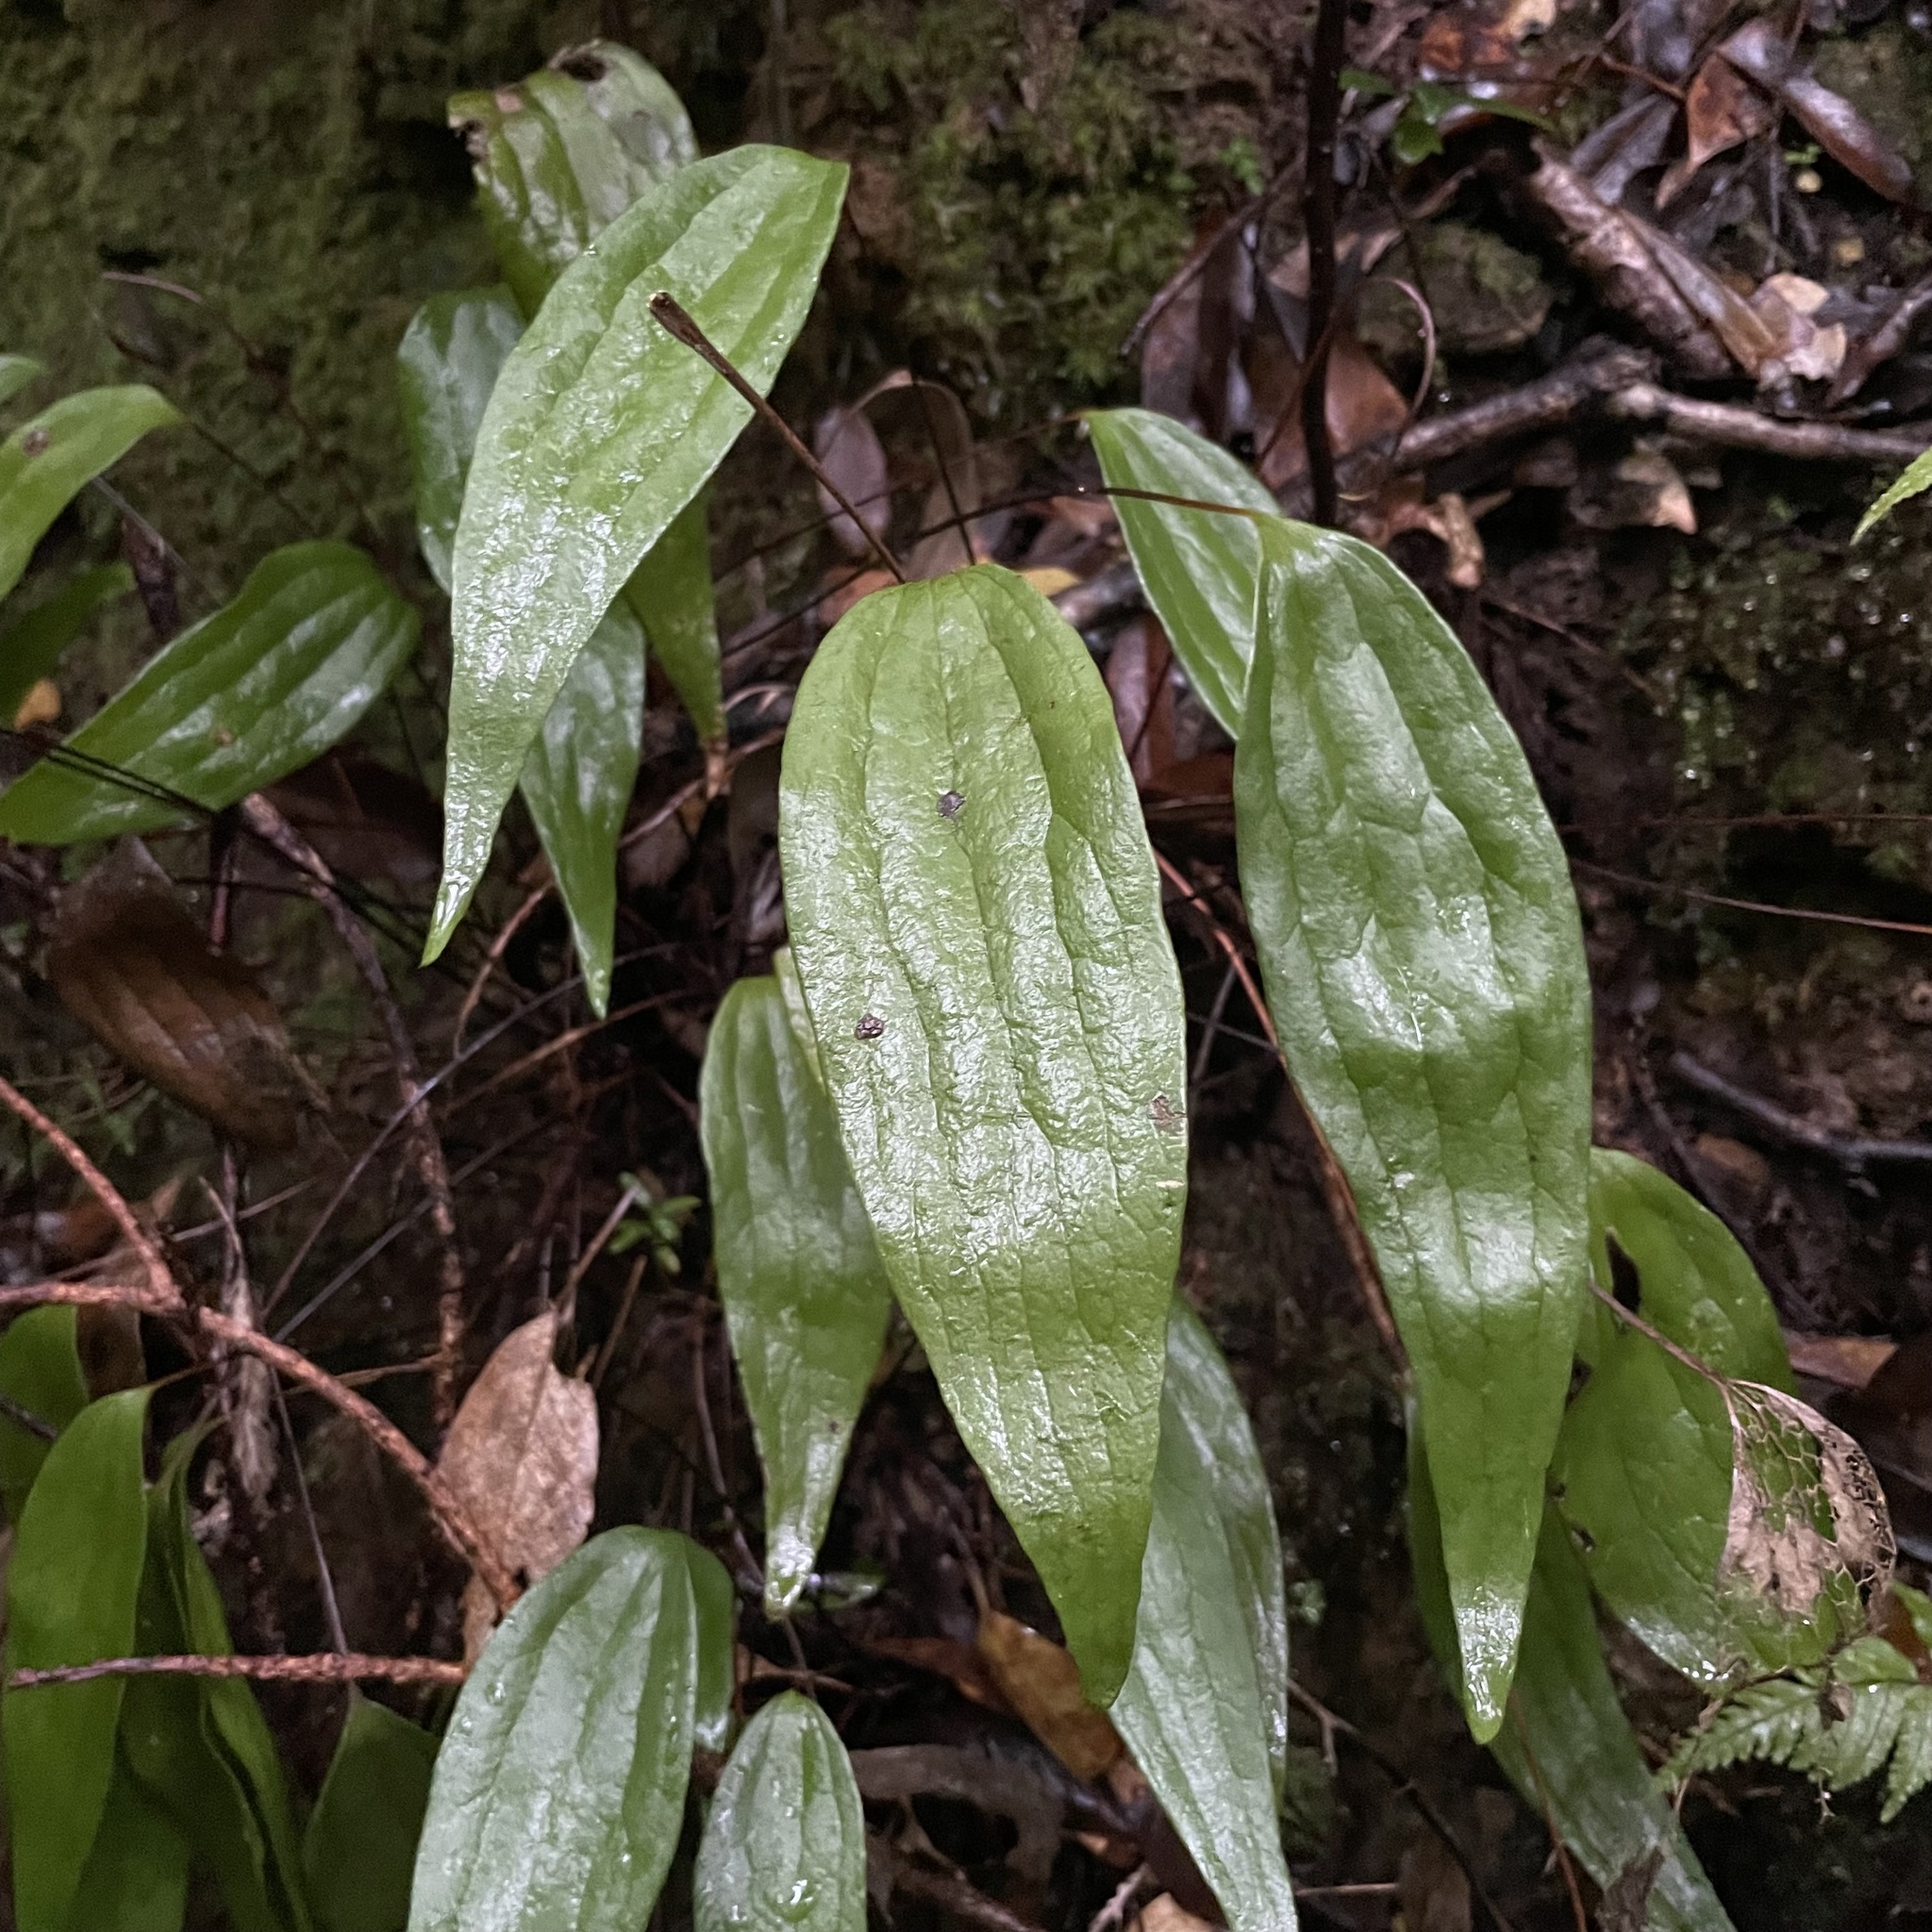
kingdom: Plantae
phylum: Tracheophyta
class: Polypodiopsida
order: Gleicheniales
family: Dipteridaceae
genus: Cheiropleuria
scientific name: Cheiropleuria integrifolia
